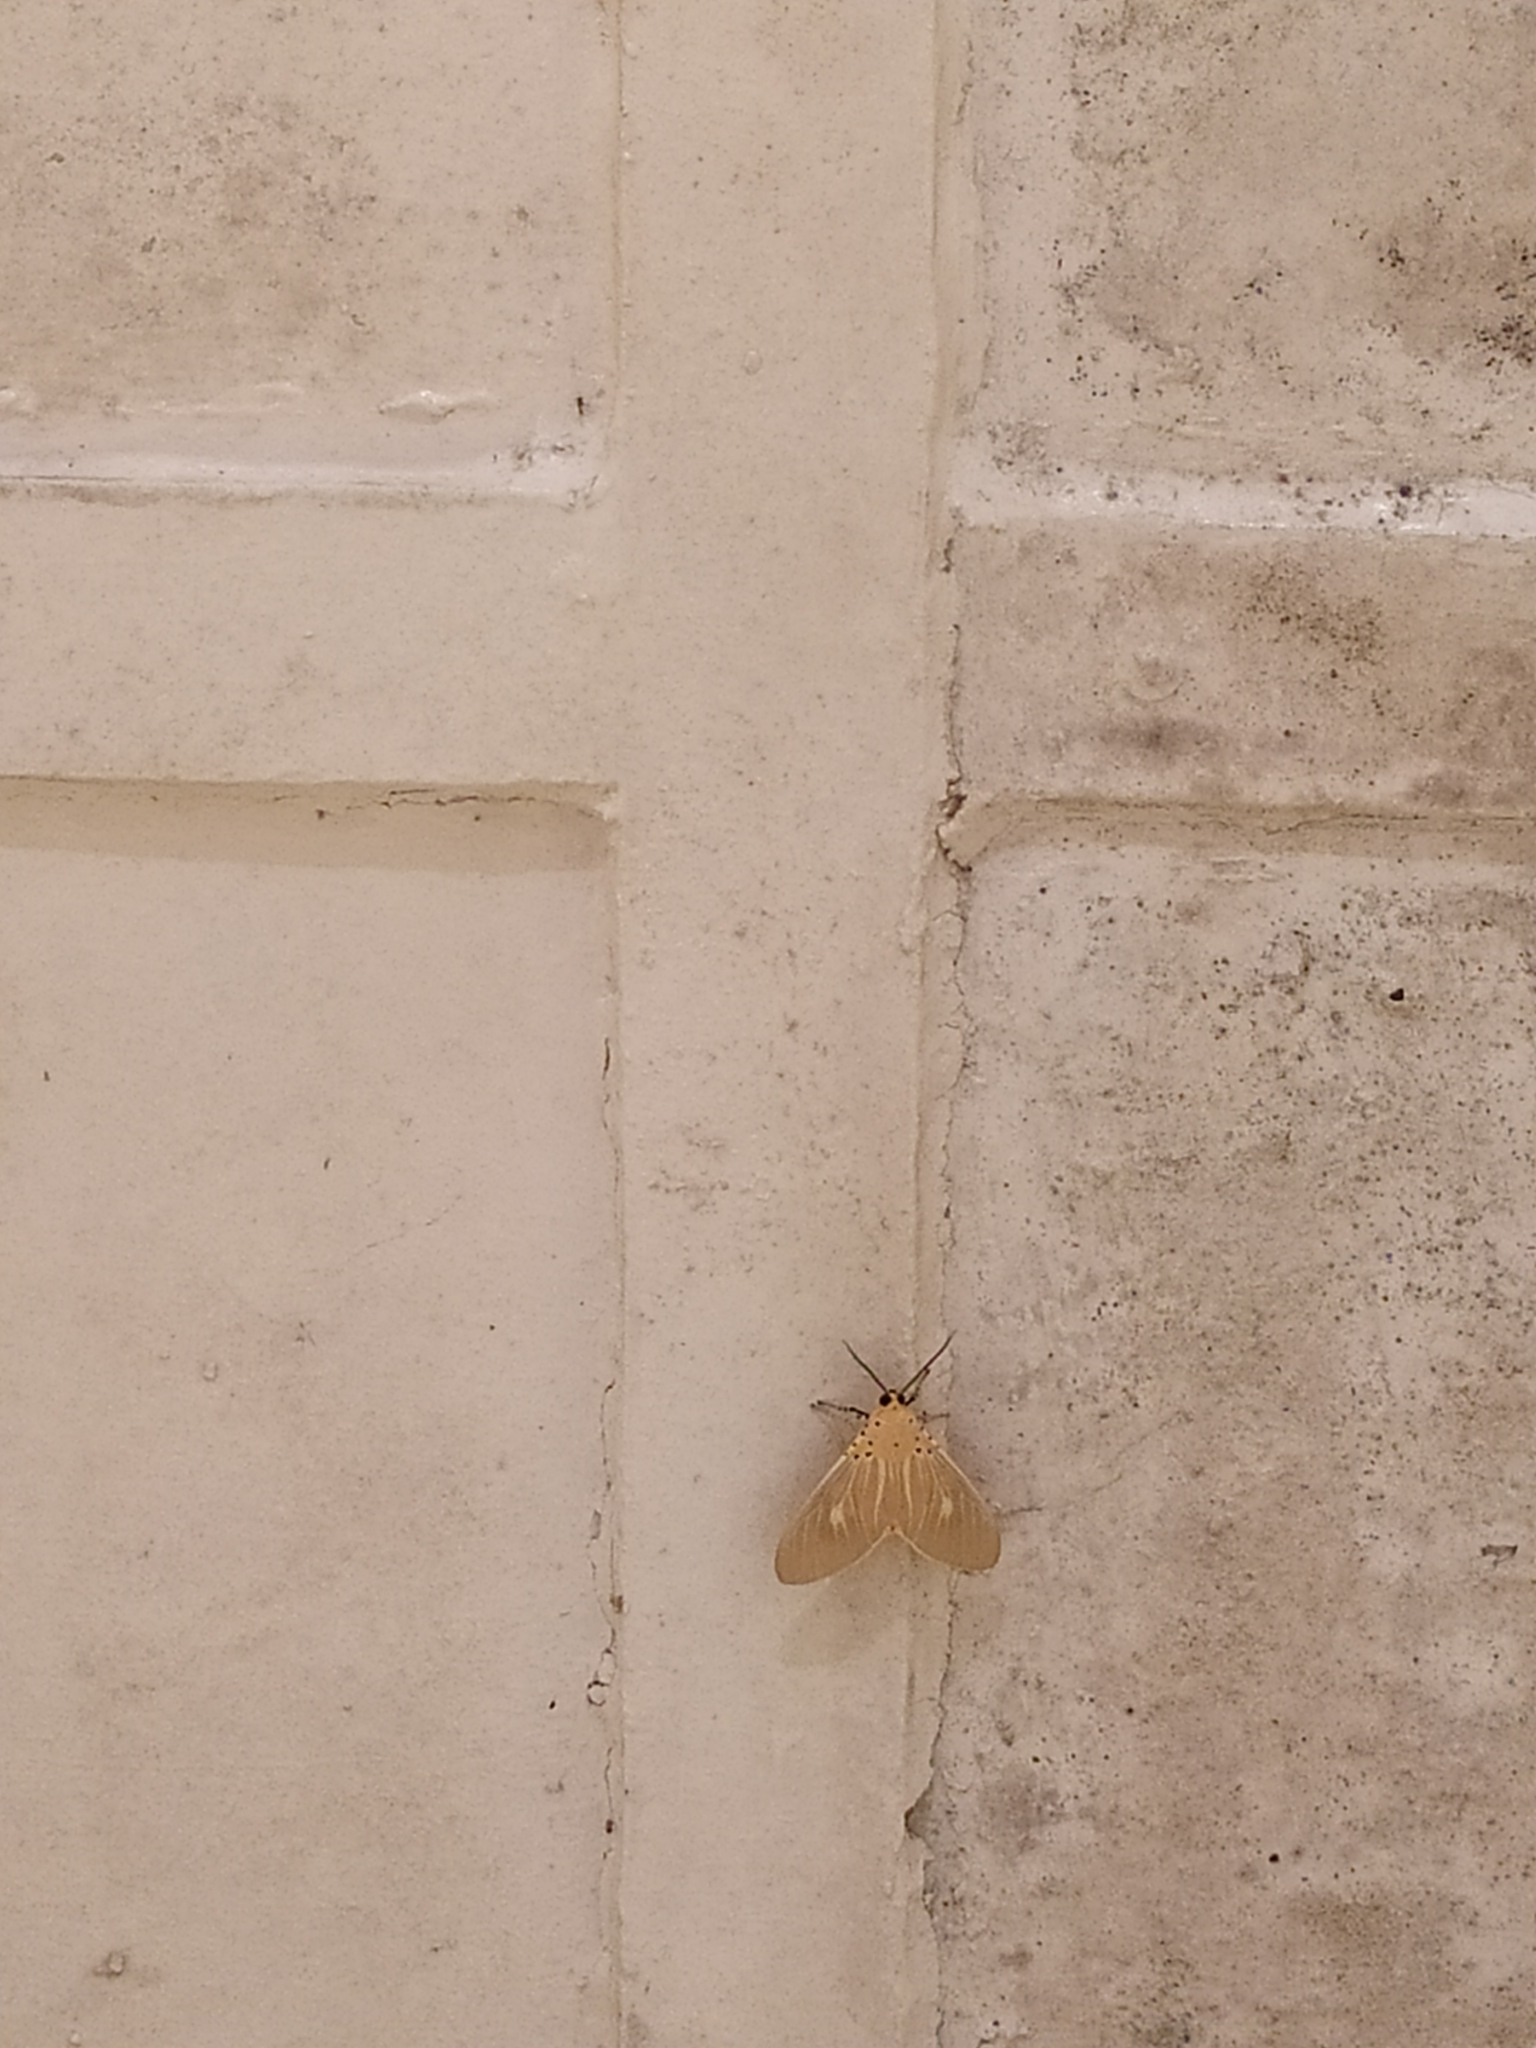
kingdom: Animalia
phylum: Arthropoda
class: Insecta
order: Lepidoptera
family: Erebidae
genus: Asota
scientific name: Asota producta
